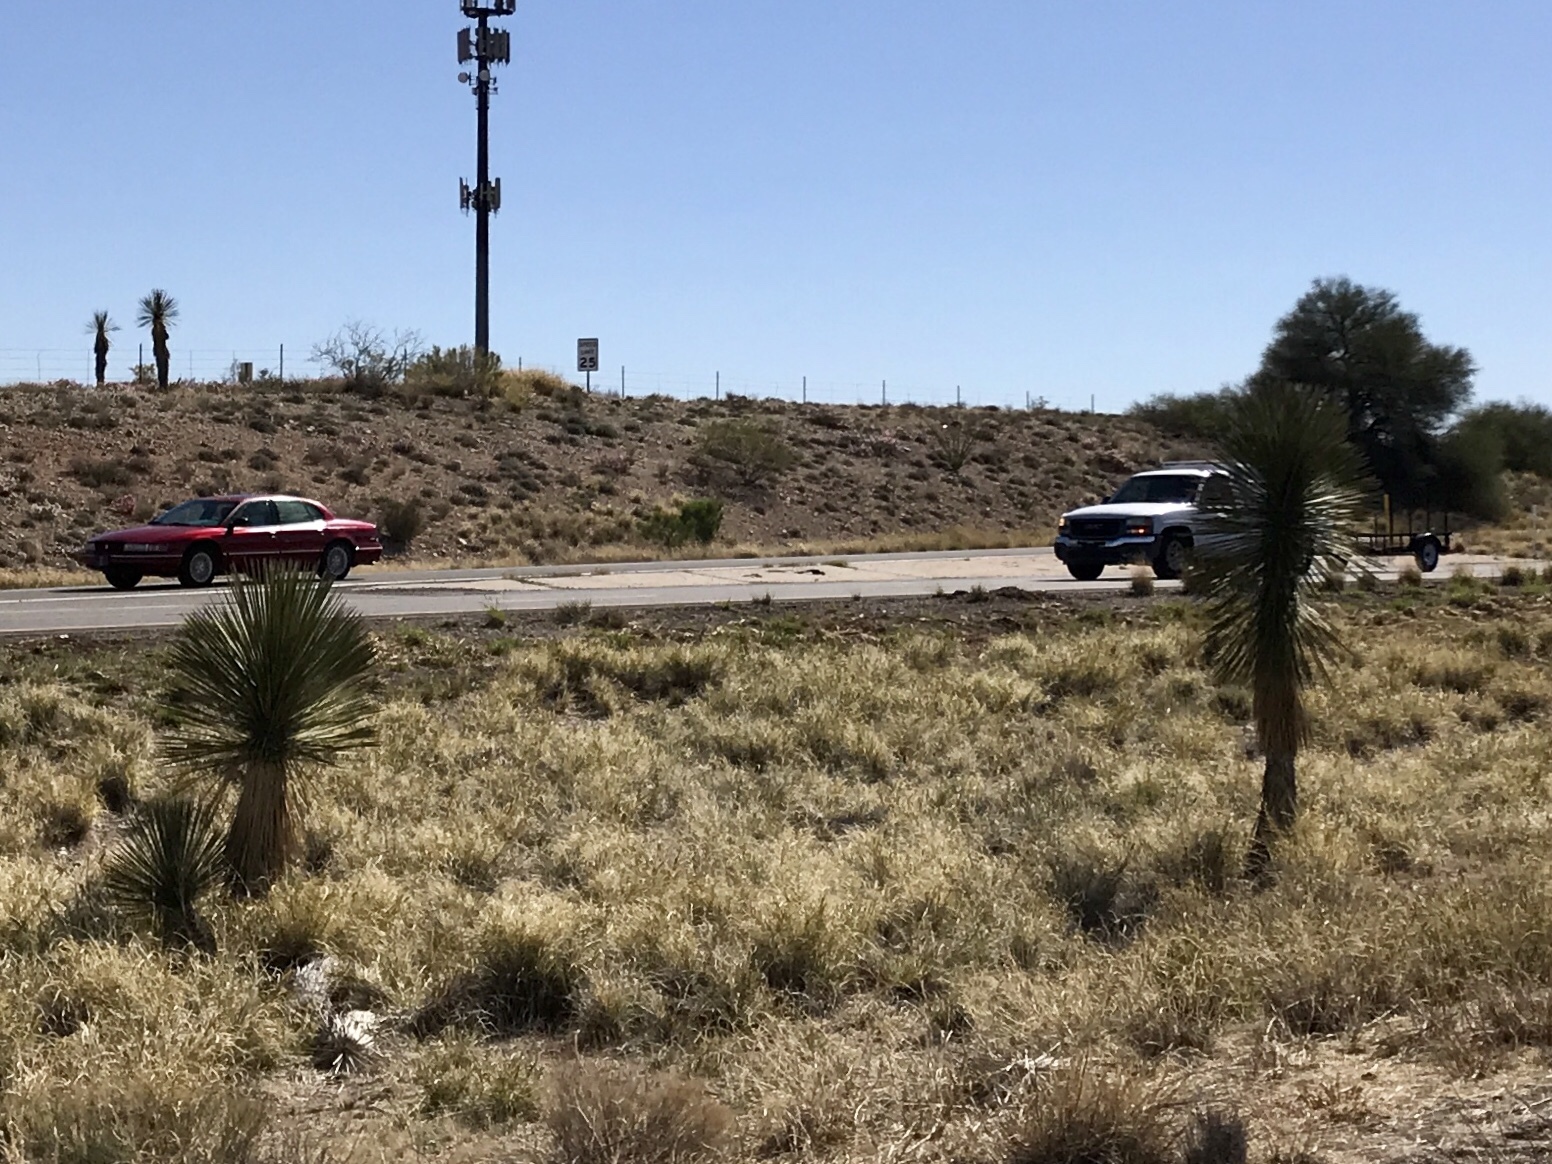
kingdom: Plantae
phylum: Tracheophyta
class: Liliopsida
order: Asparagales
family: Asparagaceae
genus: Yucca
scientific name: Yucca elata
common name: Palmella
